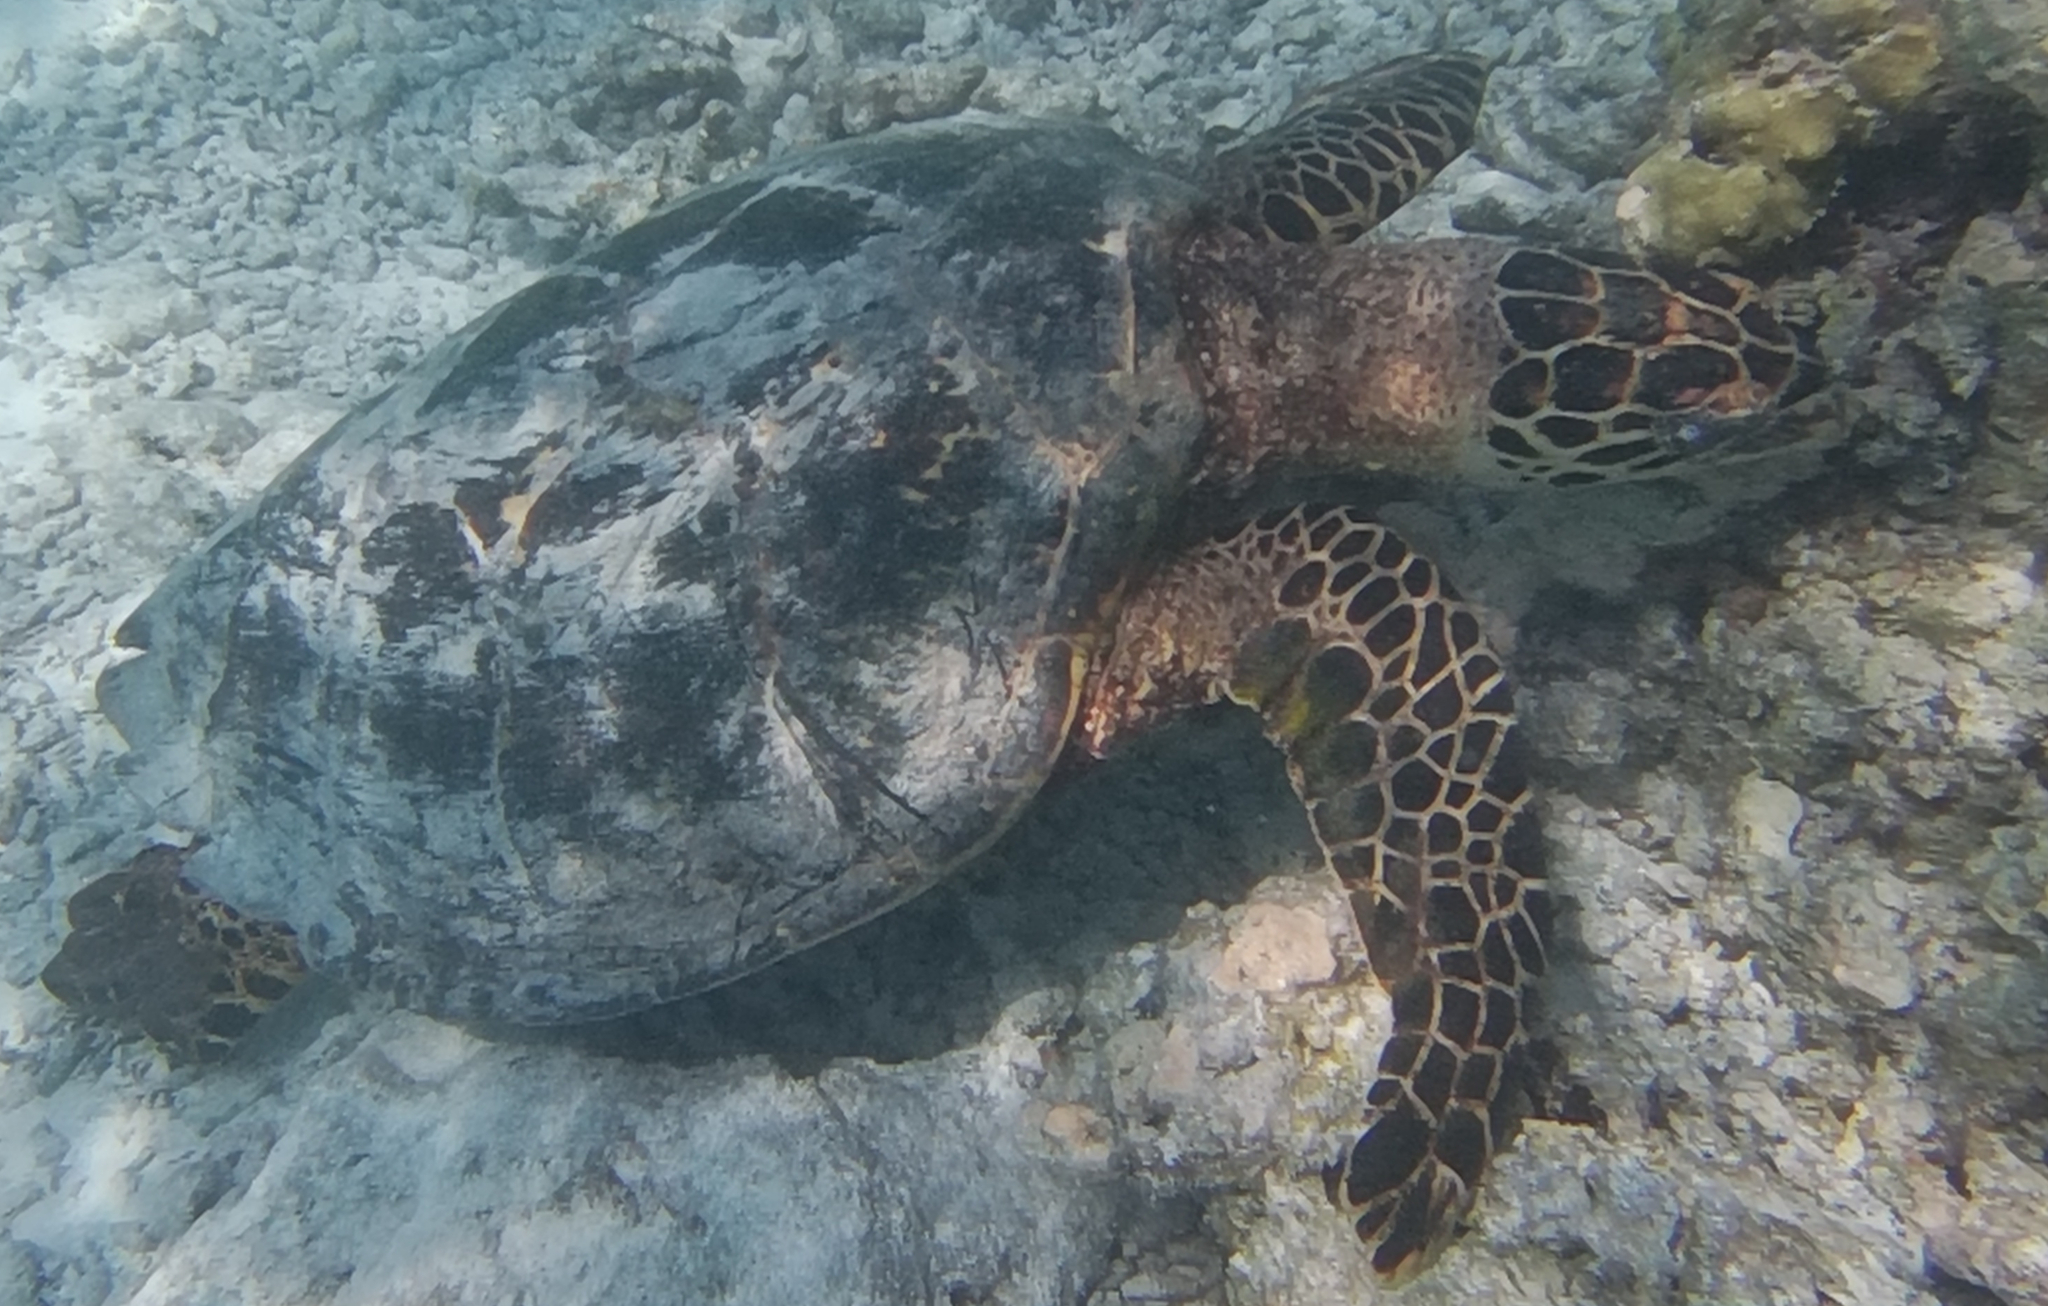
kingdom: Animalia
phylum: Chordata
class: Testudines
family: Cheloniidae
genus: Eretmochelys
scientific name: Eretmochelys imbricata
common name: Hawksbill turtle
